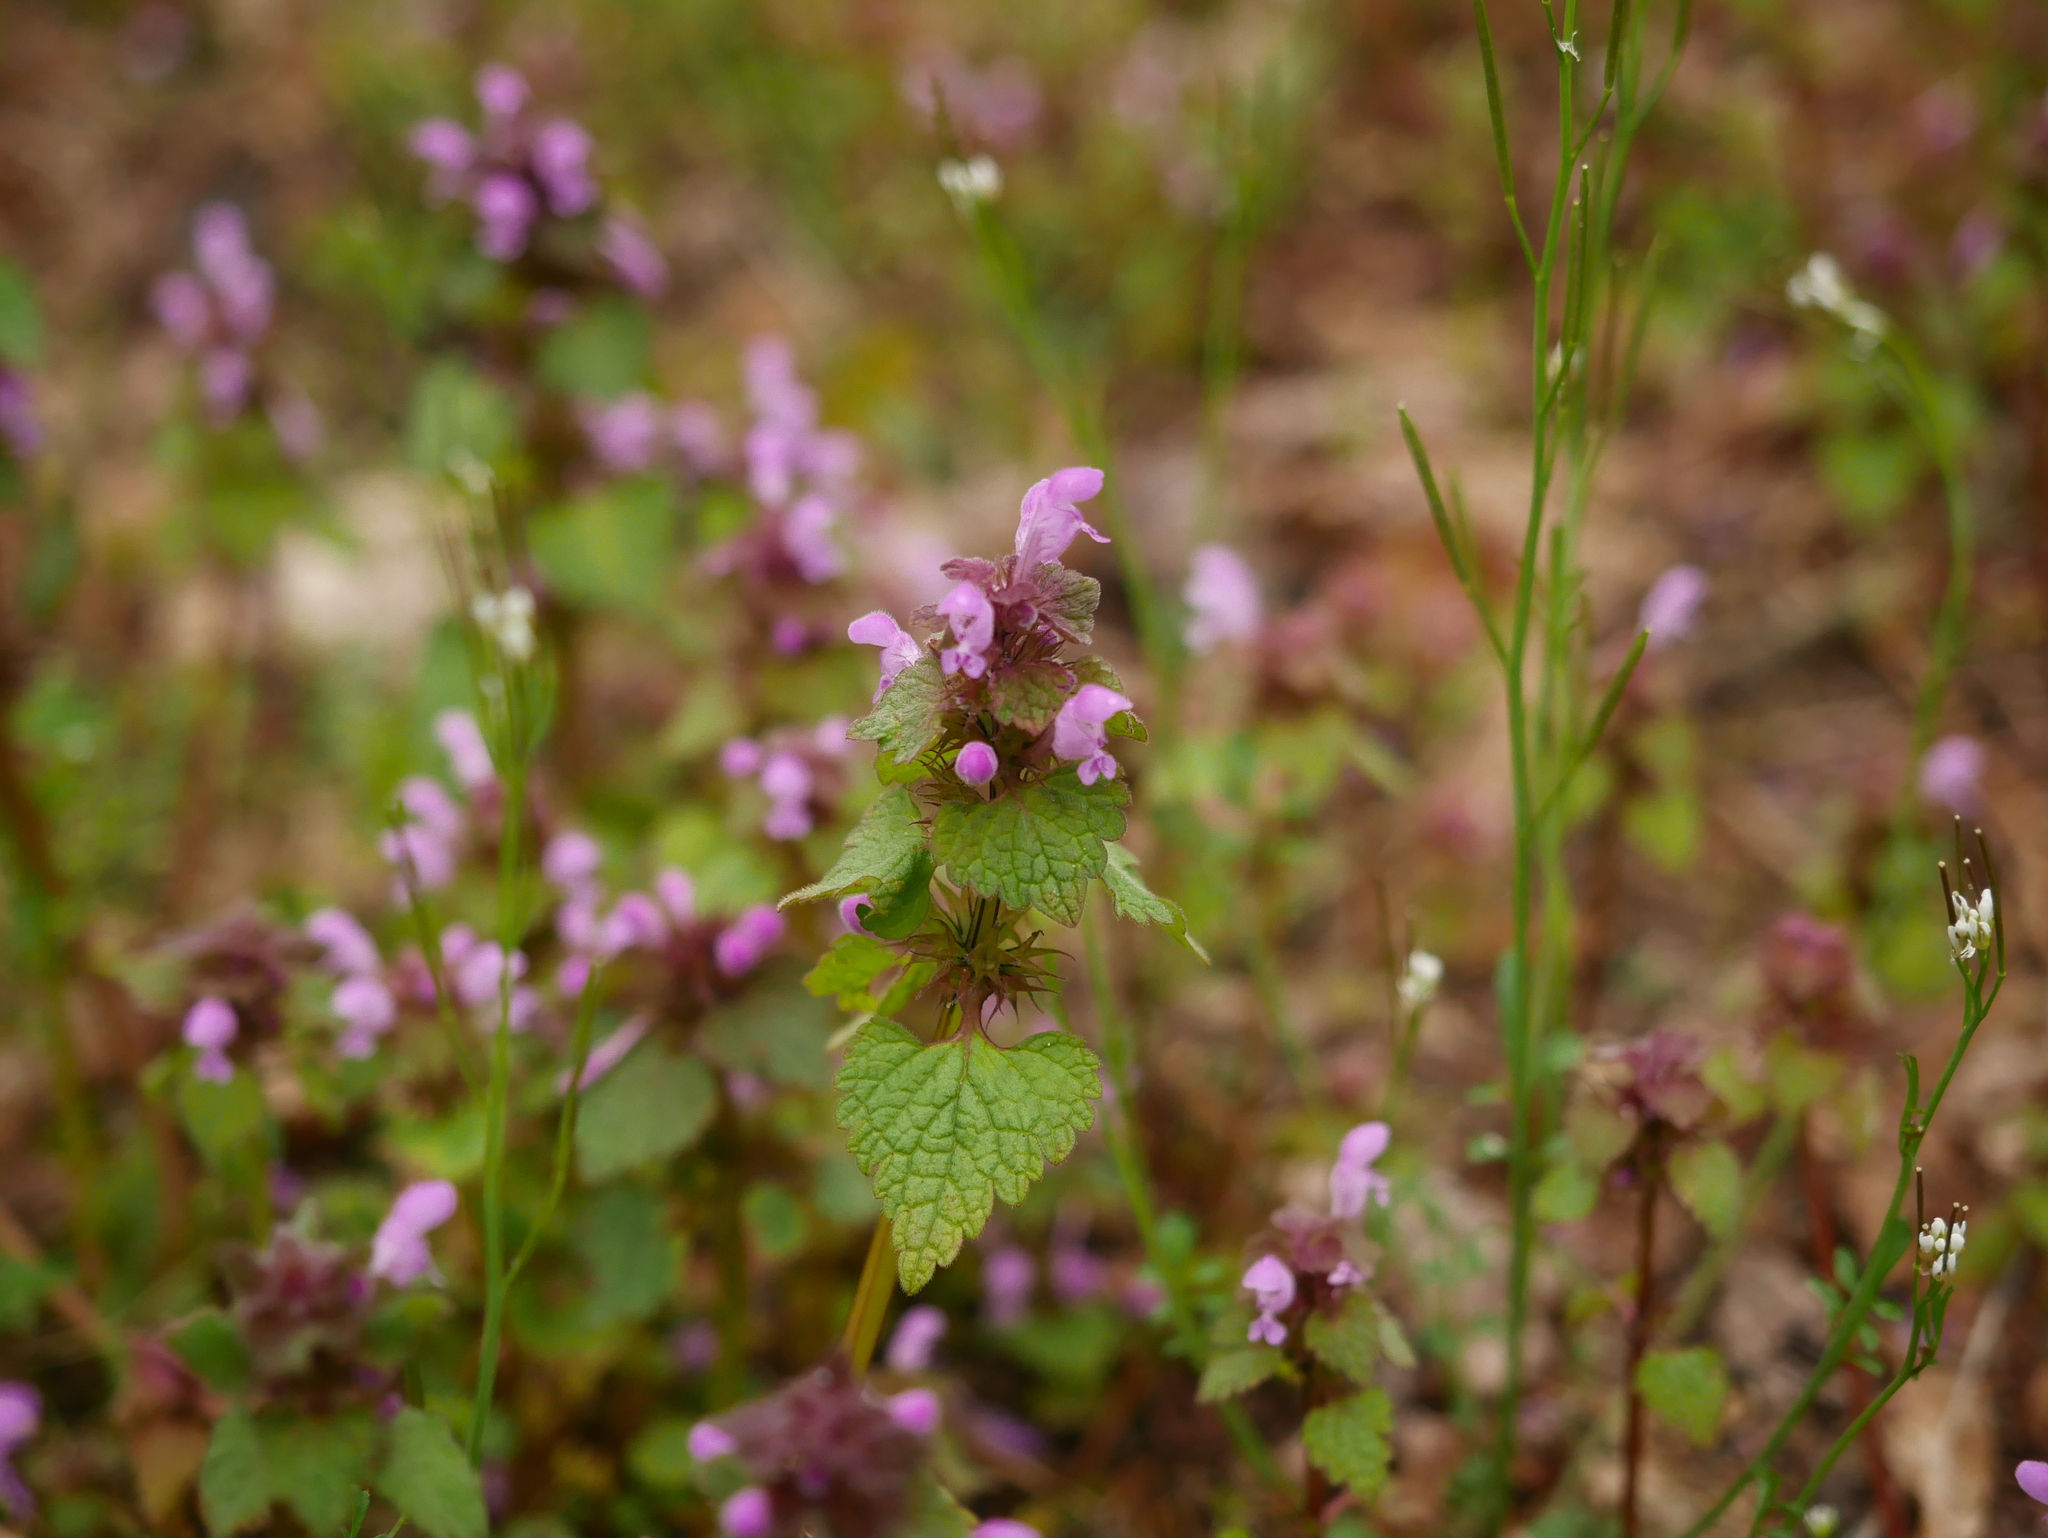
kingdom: Plantae
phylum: Tracheophyta
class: Magnoliopsida
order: Lamiales
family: Lamiaceae
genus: Lamium
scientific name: Lamium purpureum
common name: Red dead-nettle
